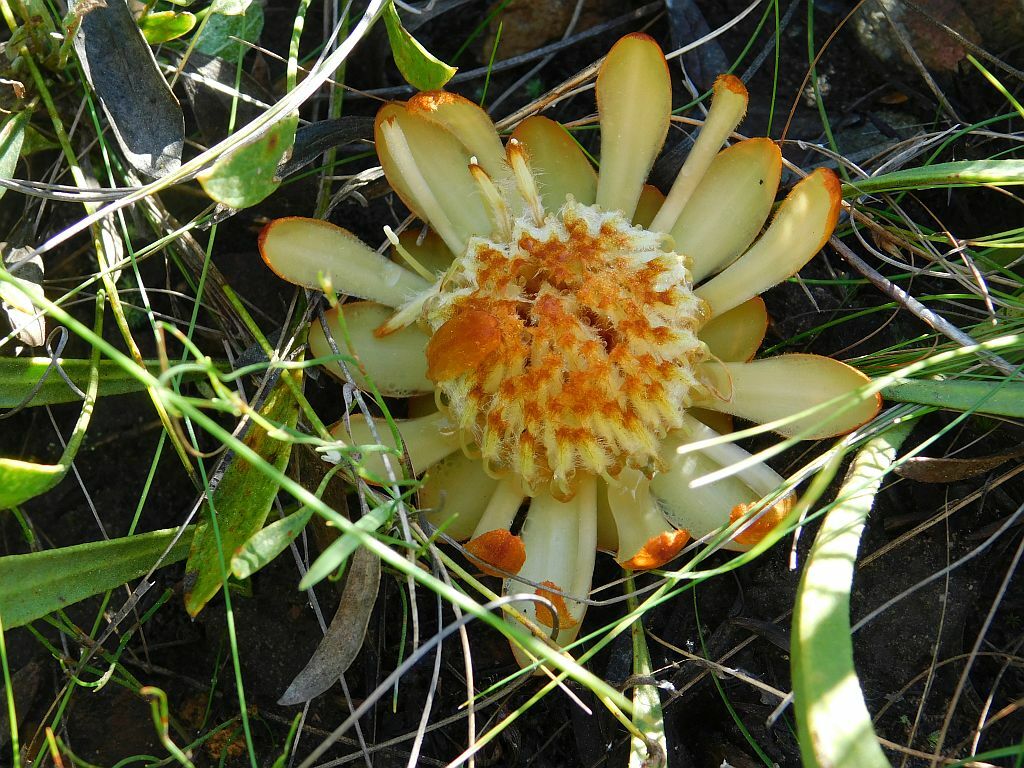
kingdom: Plantae
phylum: Tracheophyta
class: Magnoliopsida
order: Proteales
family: Proteaceae
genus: Protea
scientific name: Protea scabra
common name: Sandpaper-leaf sugarbush
